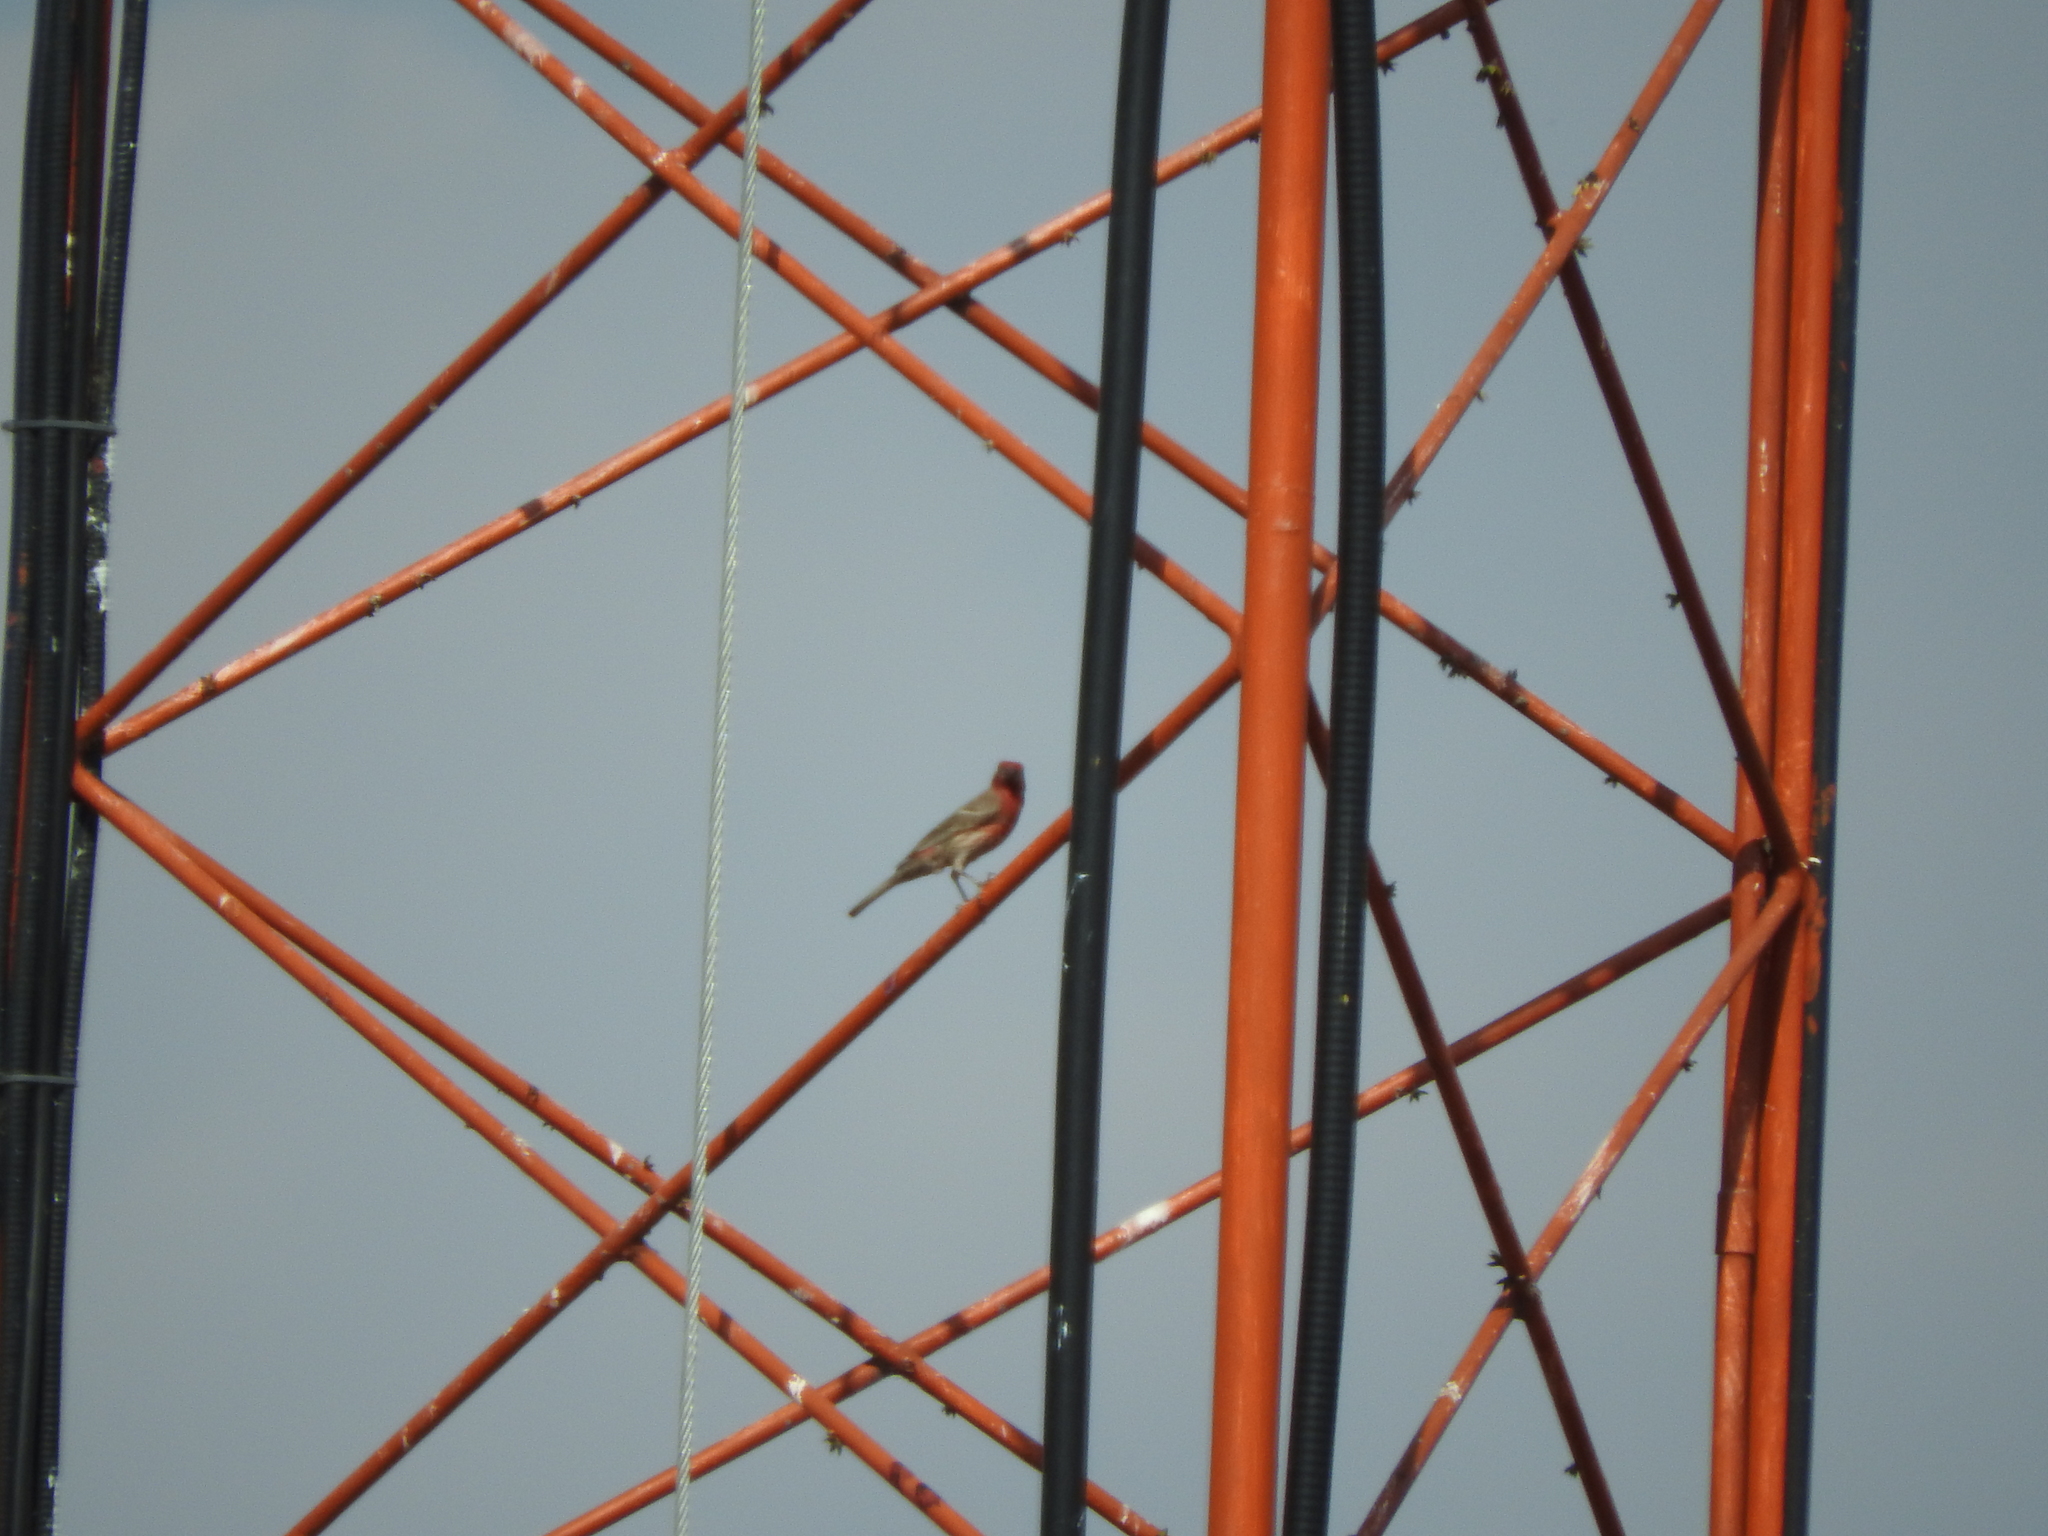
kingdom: Animalia
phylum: Chordata
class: Aves
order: Passeriformes
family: Fringillidae
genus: Haemorhous
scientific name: Haemorhous mexicanus
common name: House finch
